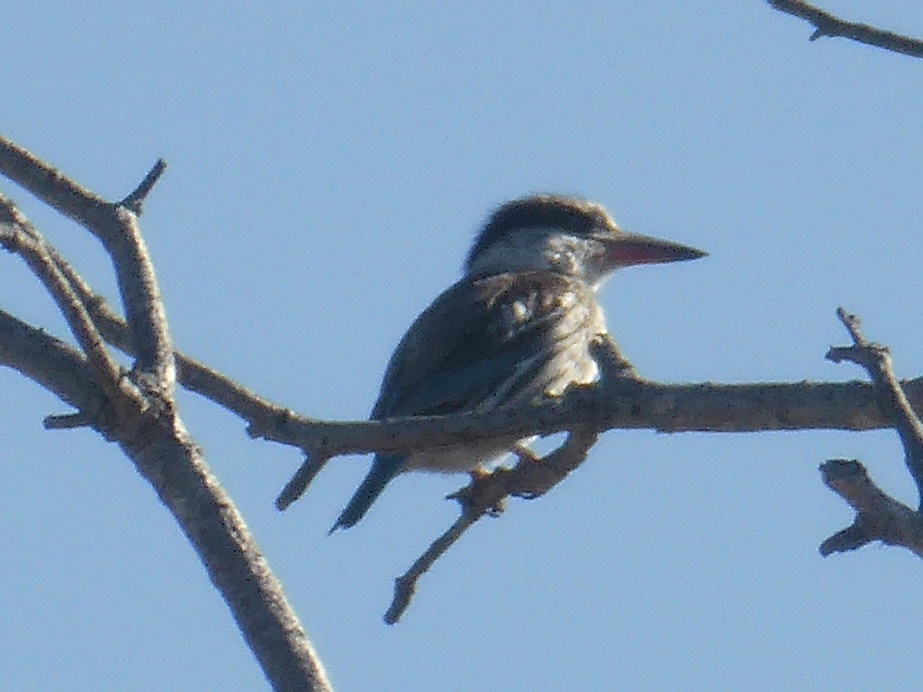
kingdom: Animalia
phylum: Chordata
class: Aves
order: Coraciiformes
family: Alcedinidae
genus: Halcyon
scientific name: Halcyon chelicuti
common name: Striped kingfisher
